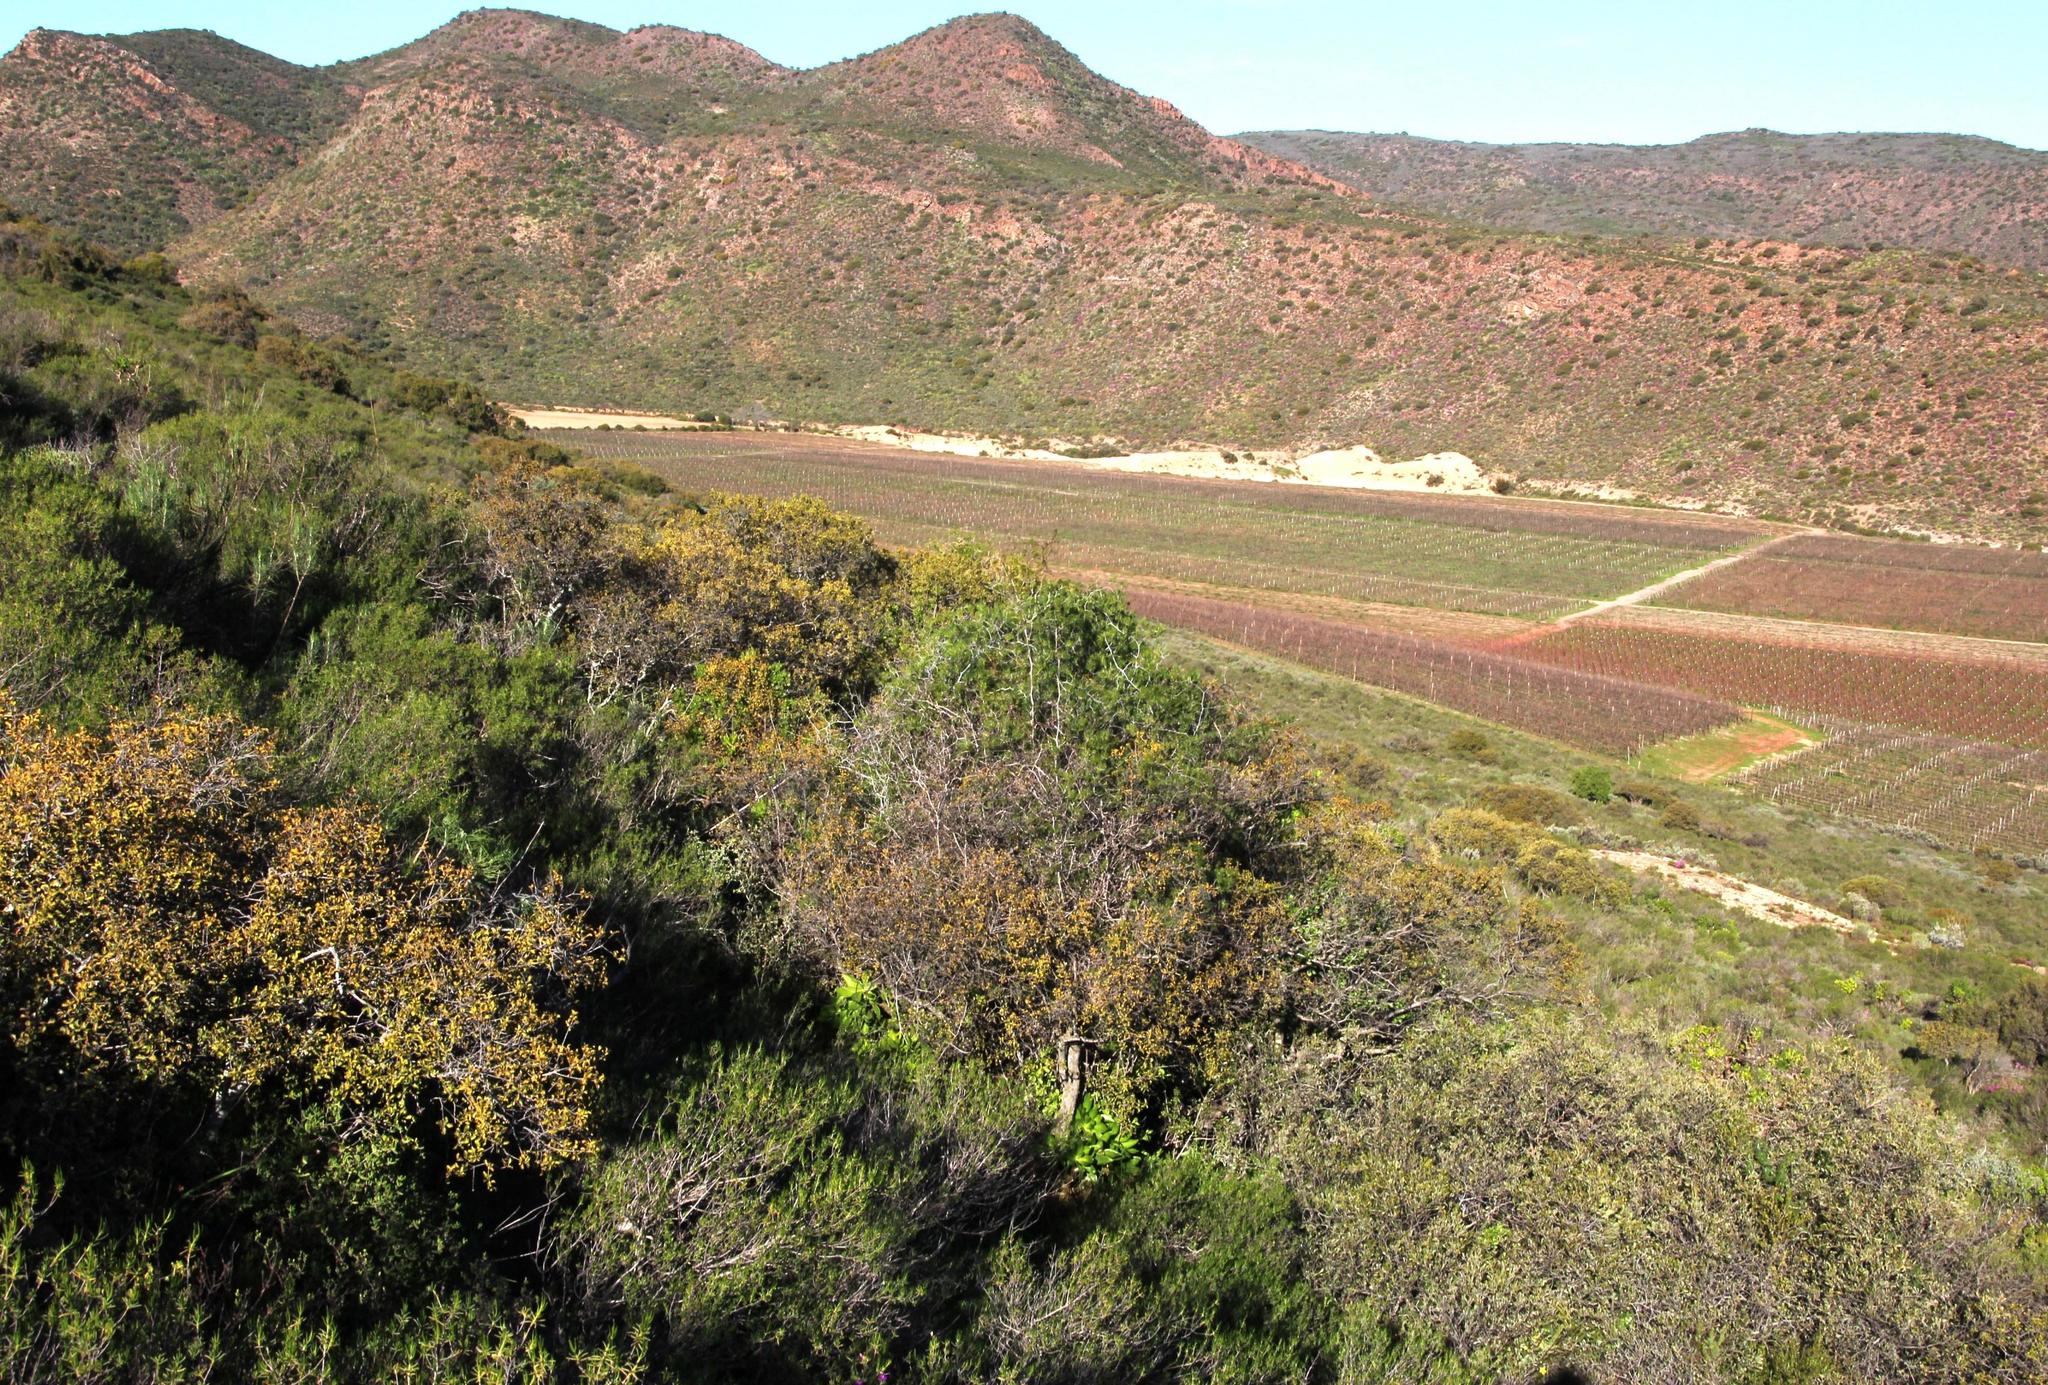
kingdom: Plantae
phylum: Tracheophyta
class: Liliopsida
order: Asparagales
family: Asparagaceae
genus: Asparagus
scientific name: Asparagus retrofractus
